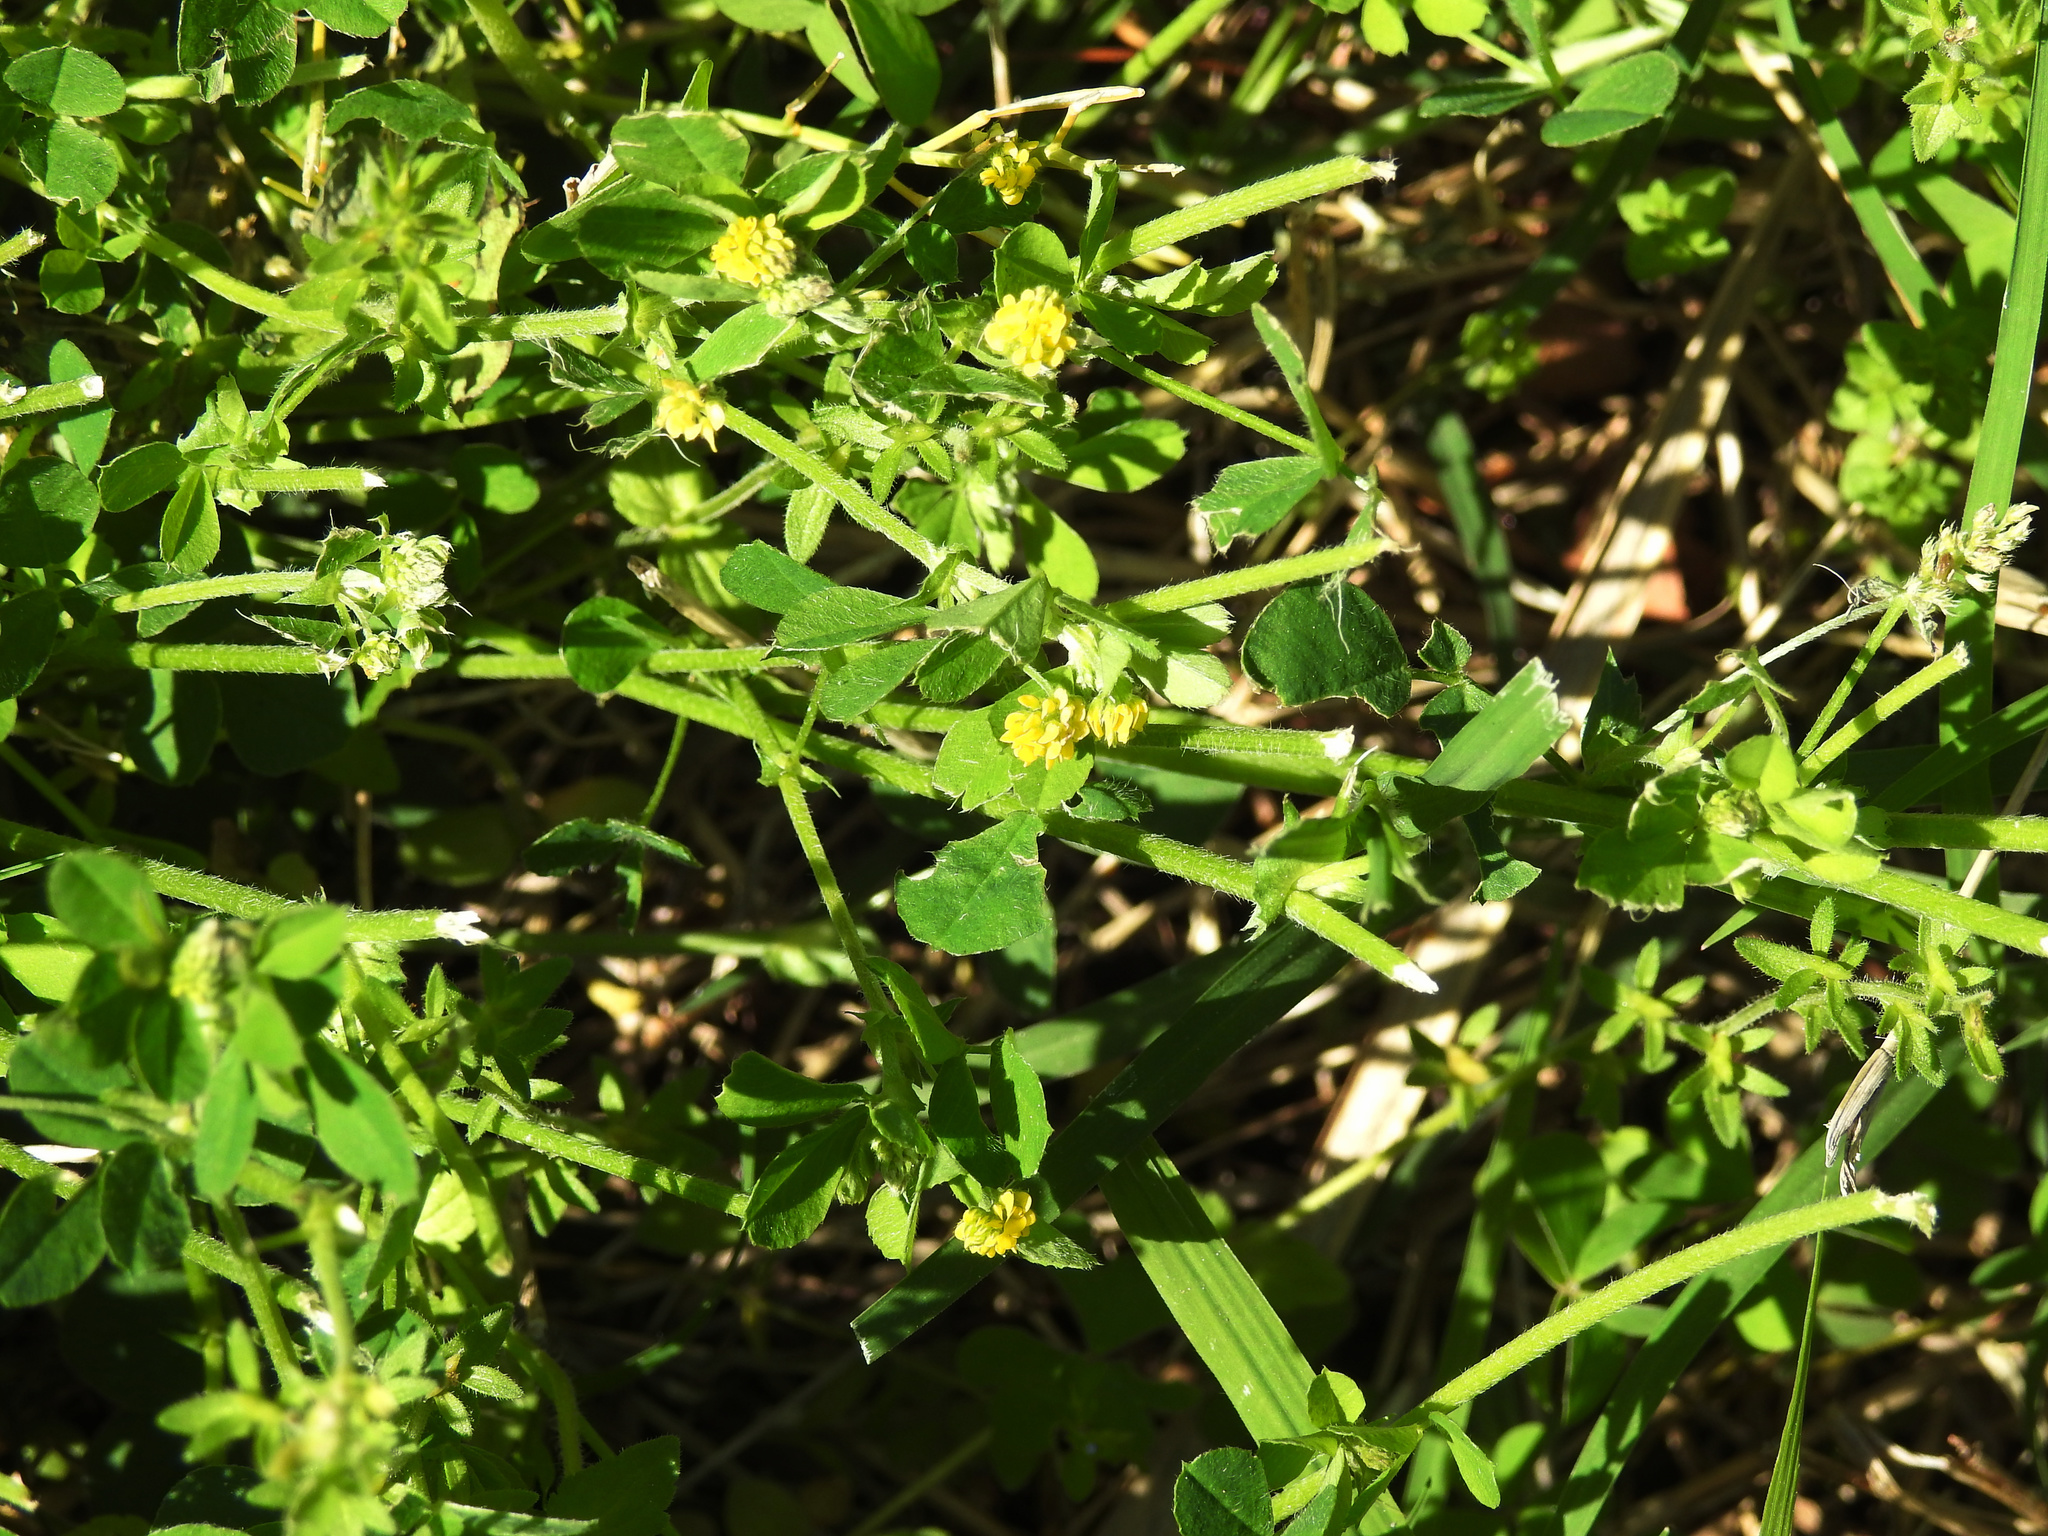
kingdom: Plantae
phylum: Tracheophyta
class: Magnoliopsida
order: Fabales
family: Fabaceae
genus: Medicago
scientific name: Medicago lupulina
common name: Black medick
